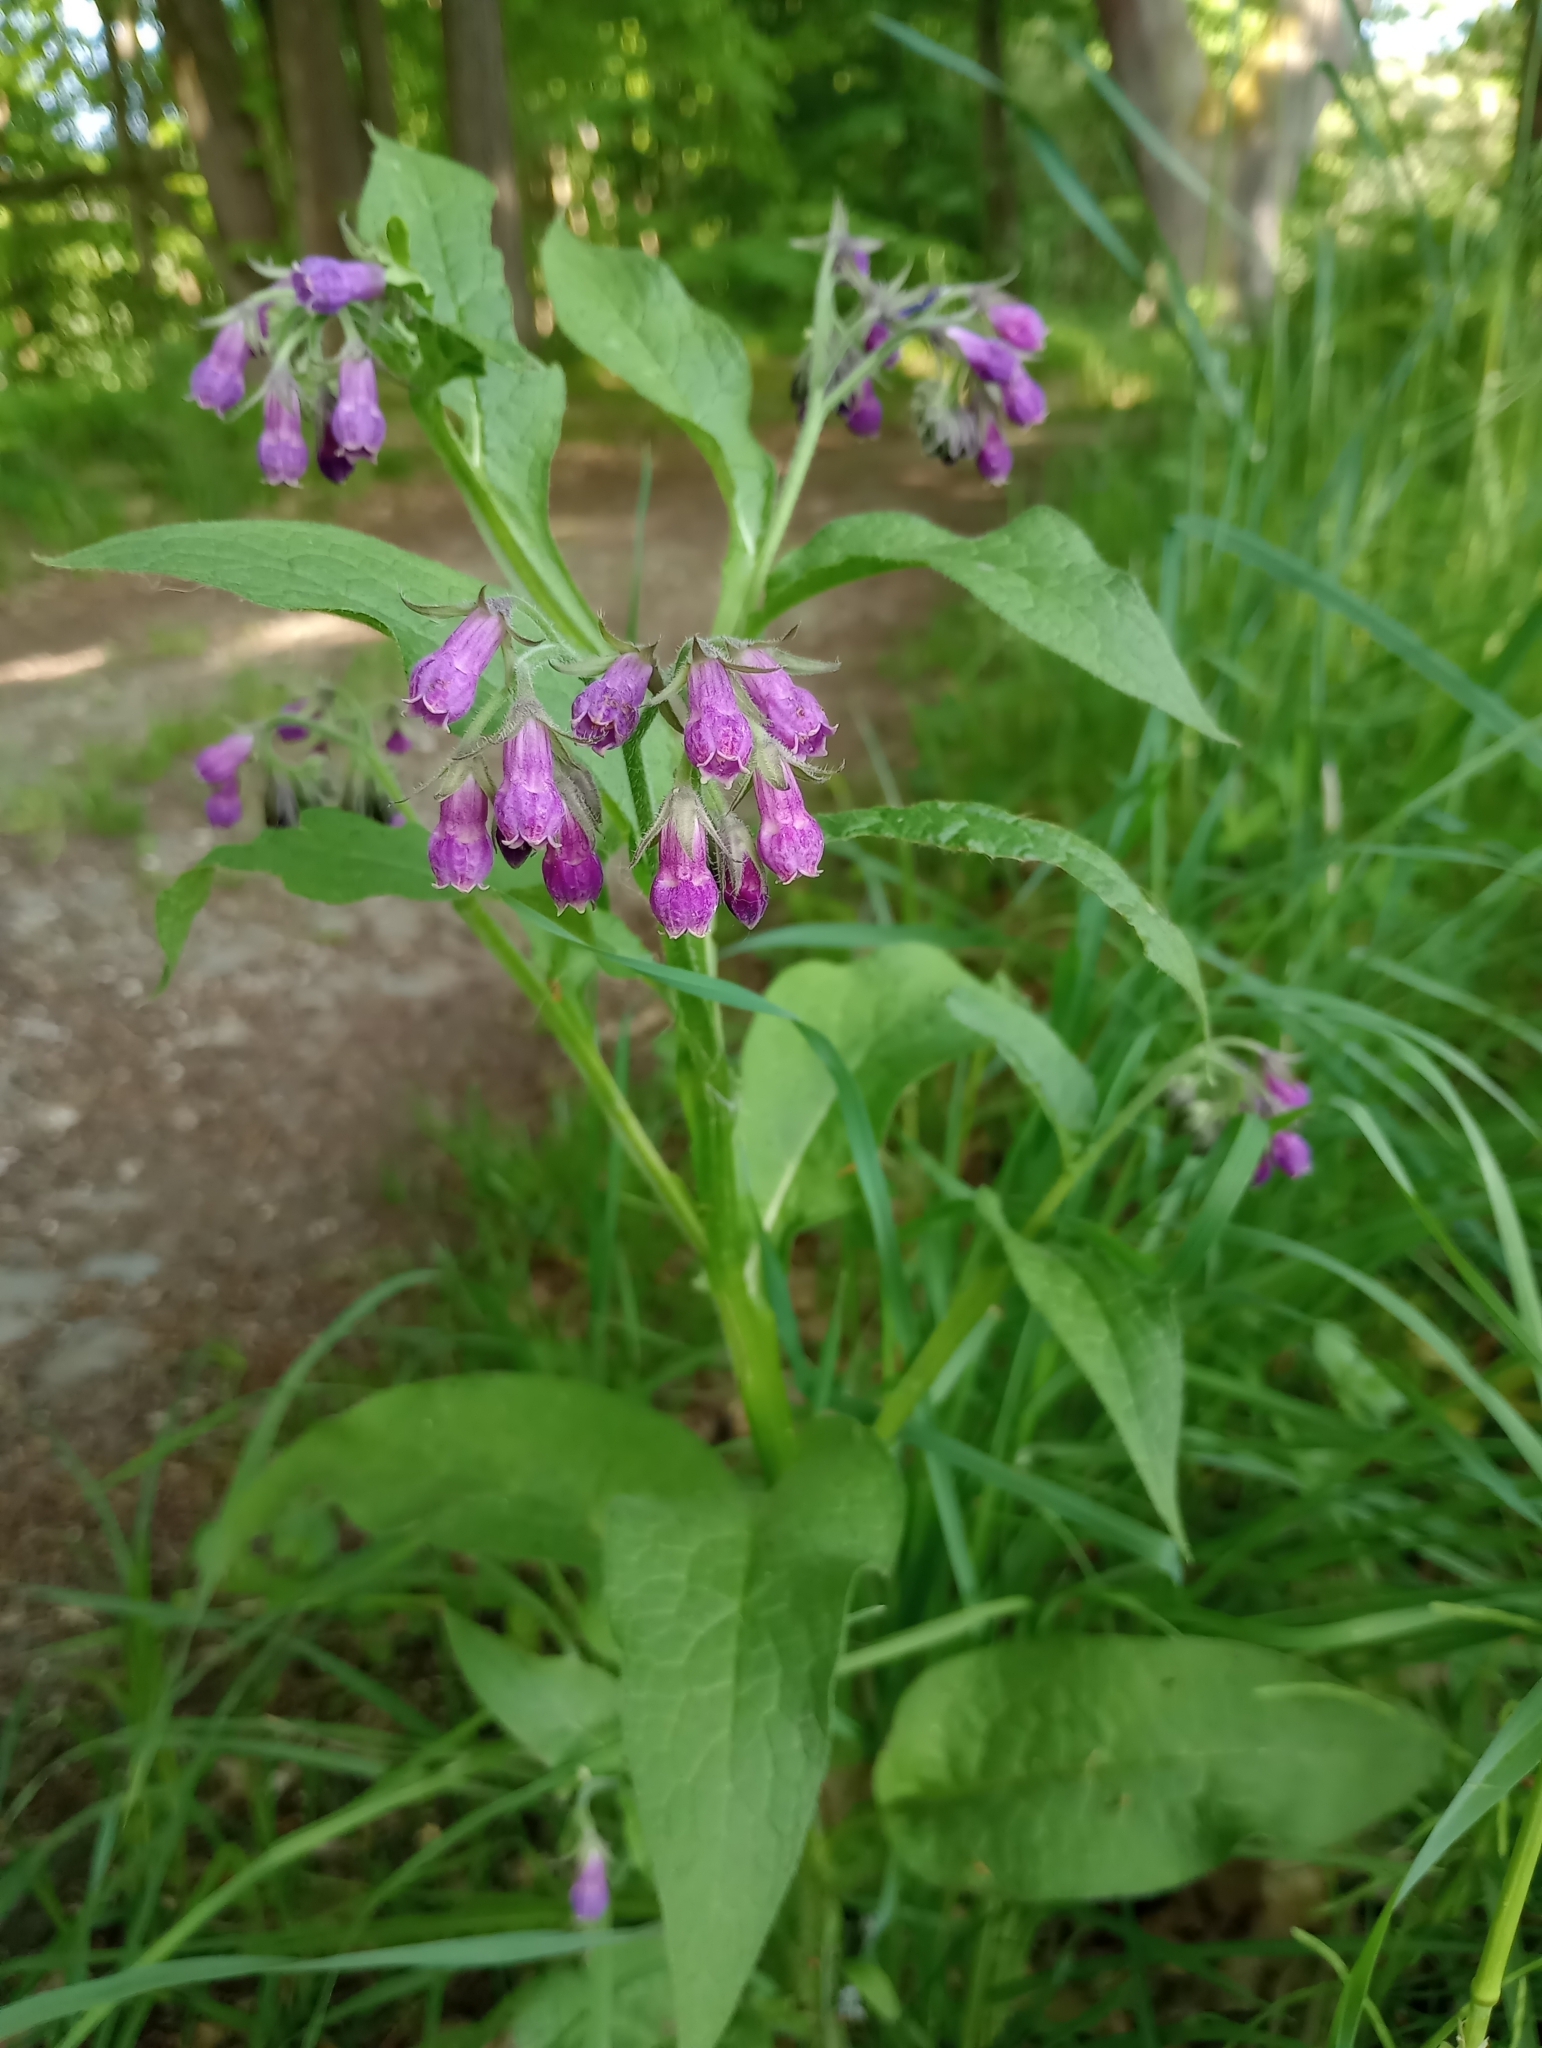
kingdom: Plantae
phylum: Tracheophyta
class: Magnoliopsida
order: Boraginales
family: Boraginaceae
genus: Symphytum
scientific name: Symphytum officinale
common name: Common comfrey
